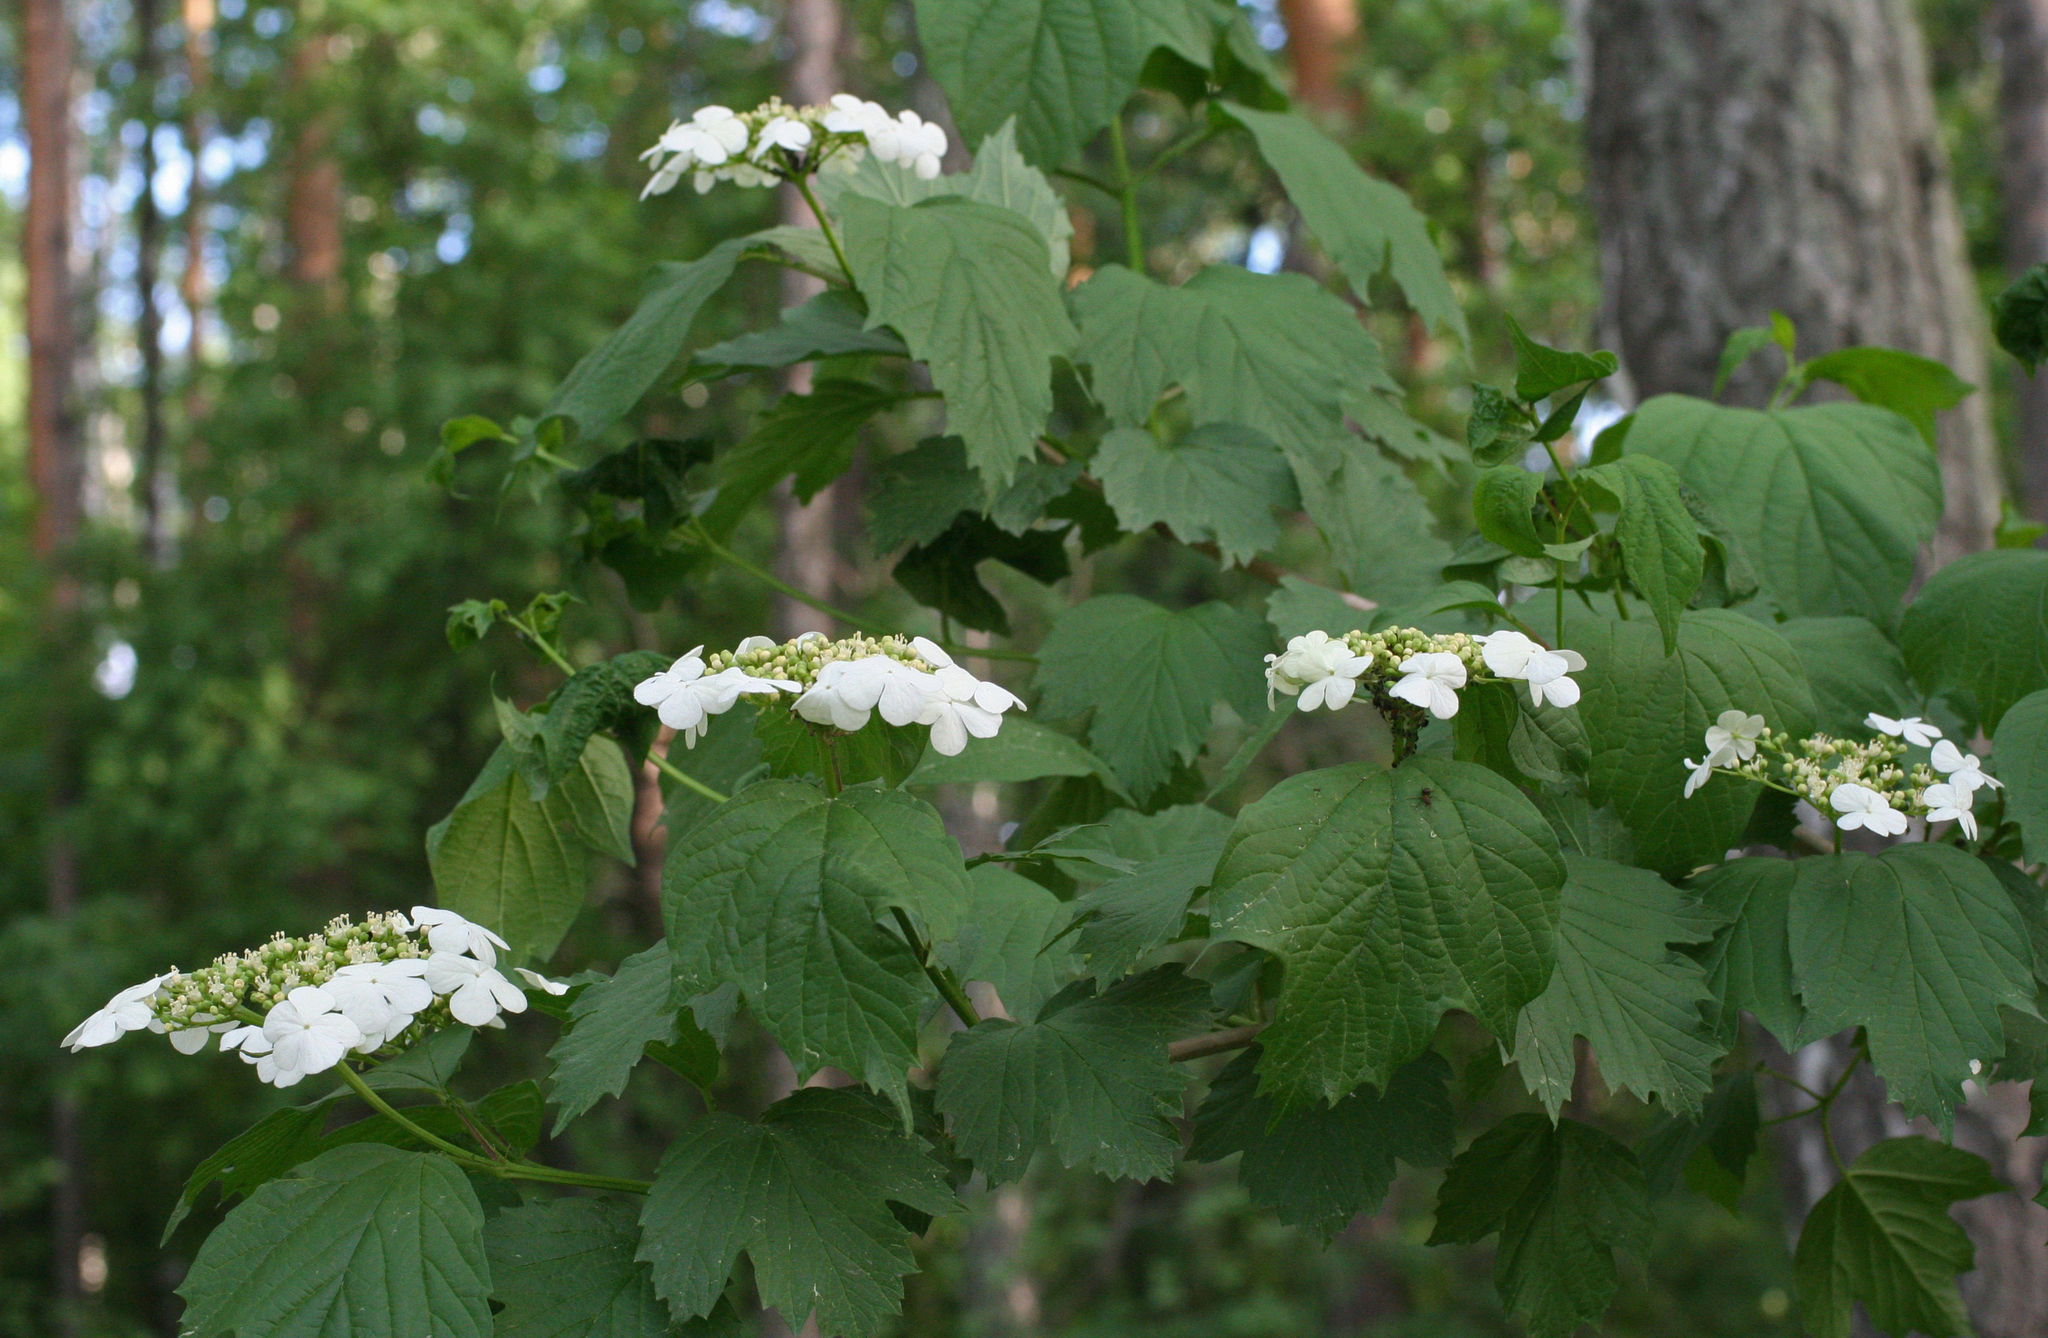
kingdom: Plantae
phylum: Tracheophyta
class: Magnoliopsida
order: Dipsacales
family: Viburnaceae
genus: Viburnum
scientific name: Viburnum opulus
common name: Guelder-rose
